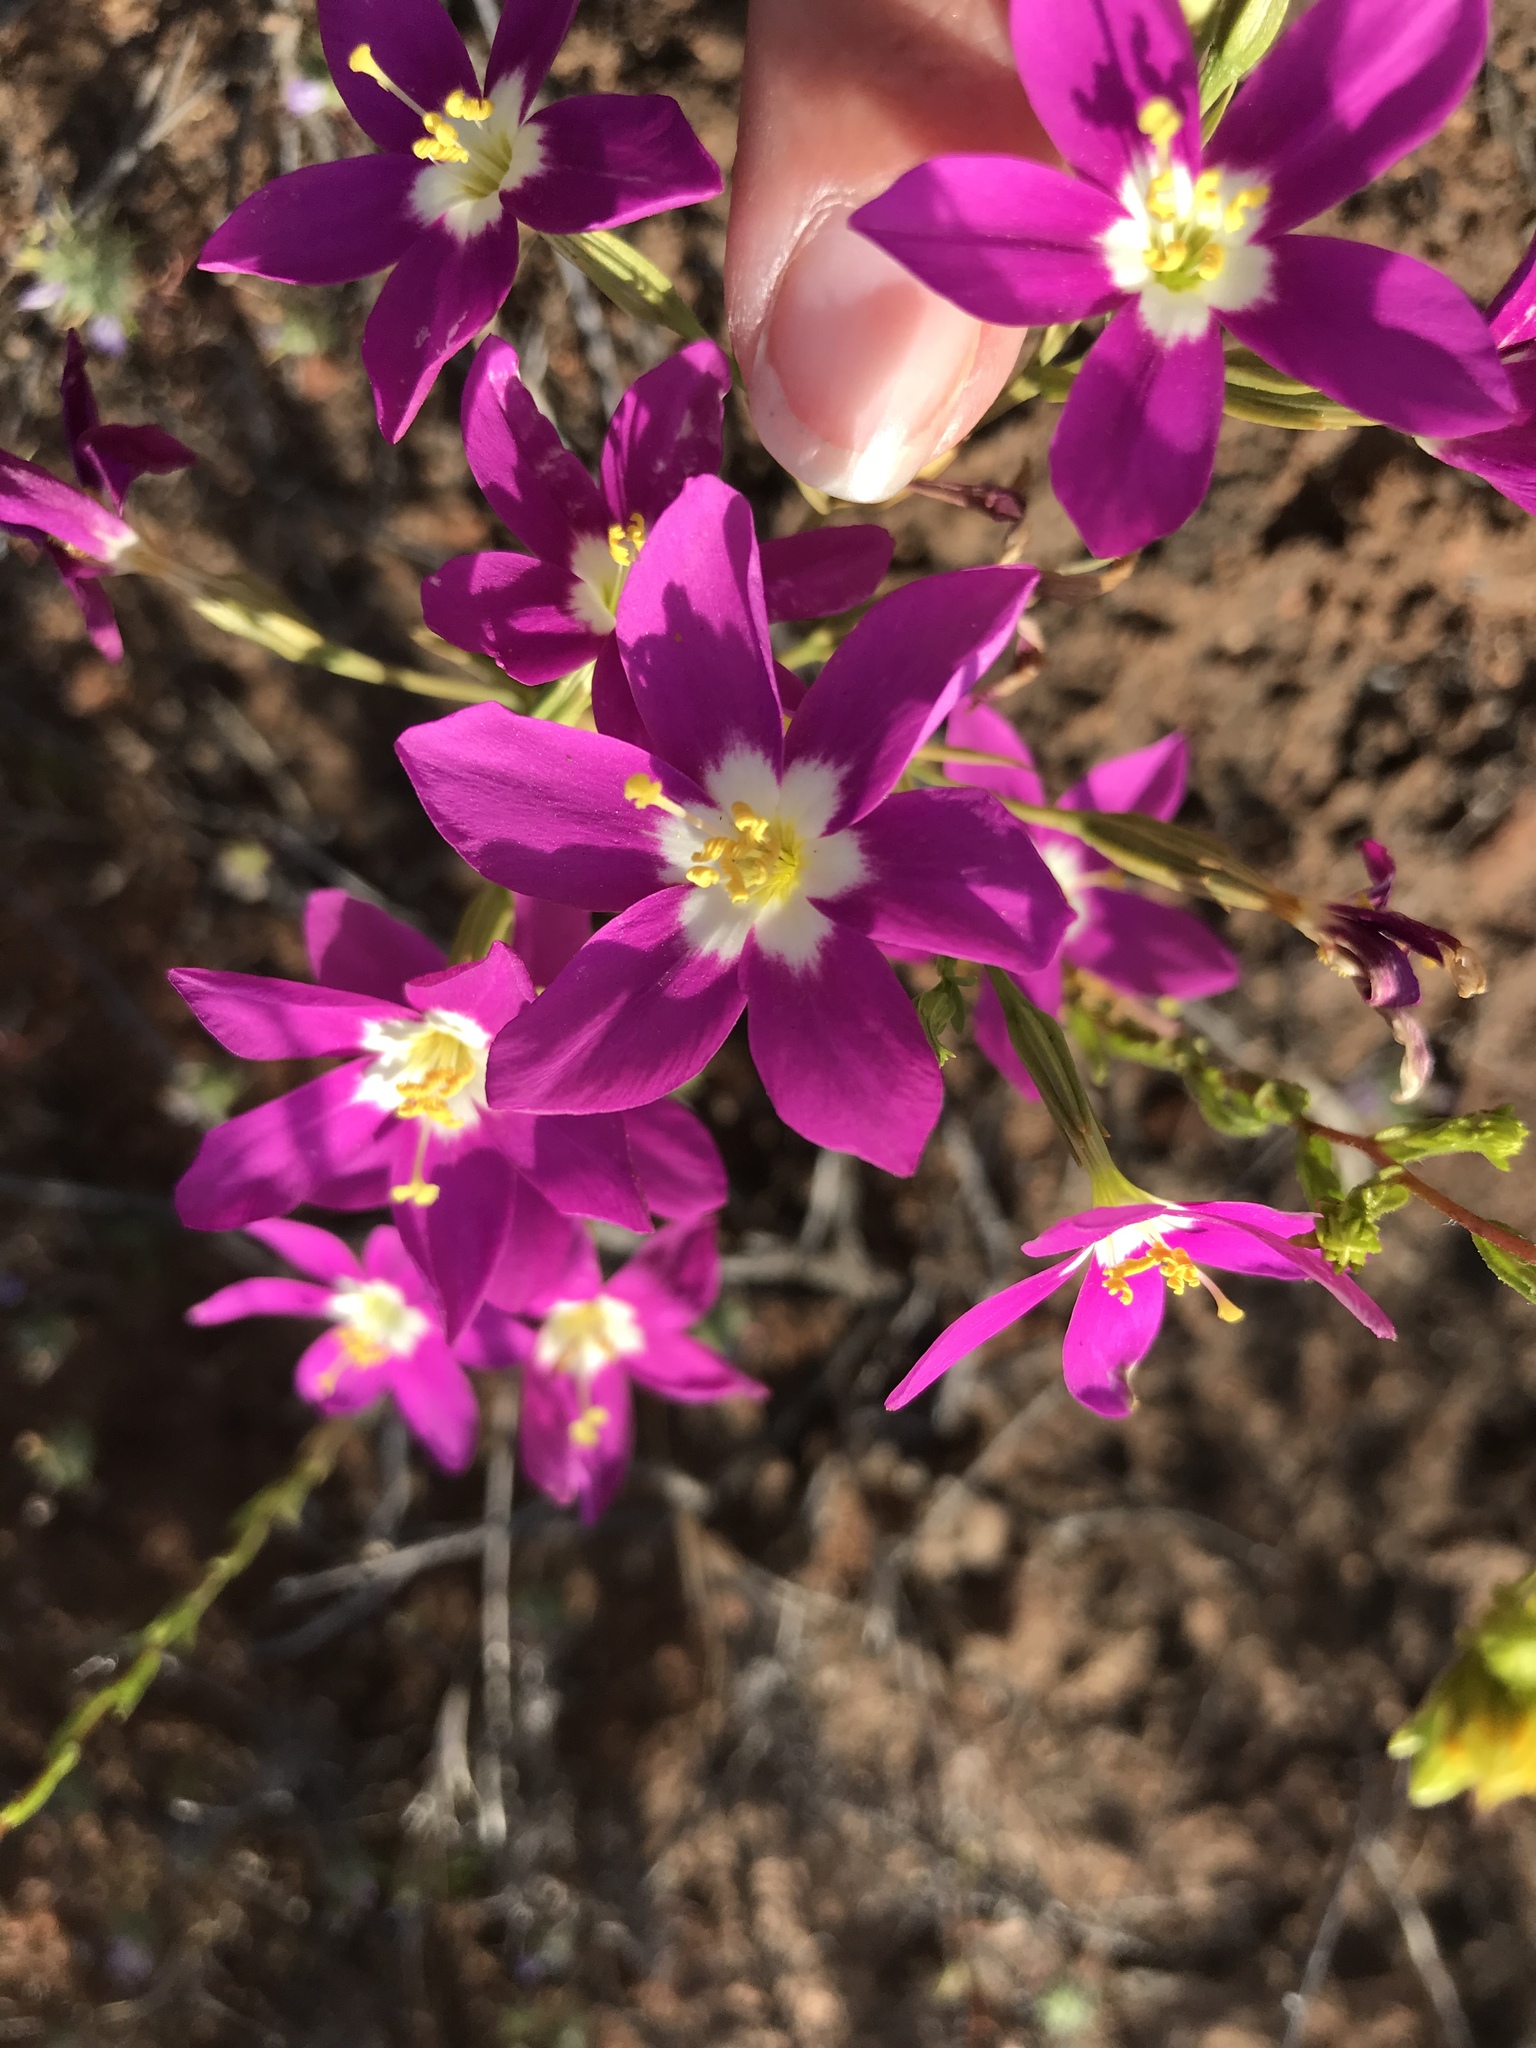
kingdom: Plantae
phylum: Tracheophyta
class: Magnoliopsida
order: Gentianales
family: Gentianaceae
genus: Zeltnera
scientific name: Zeltnera venusta
